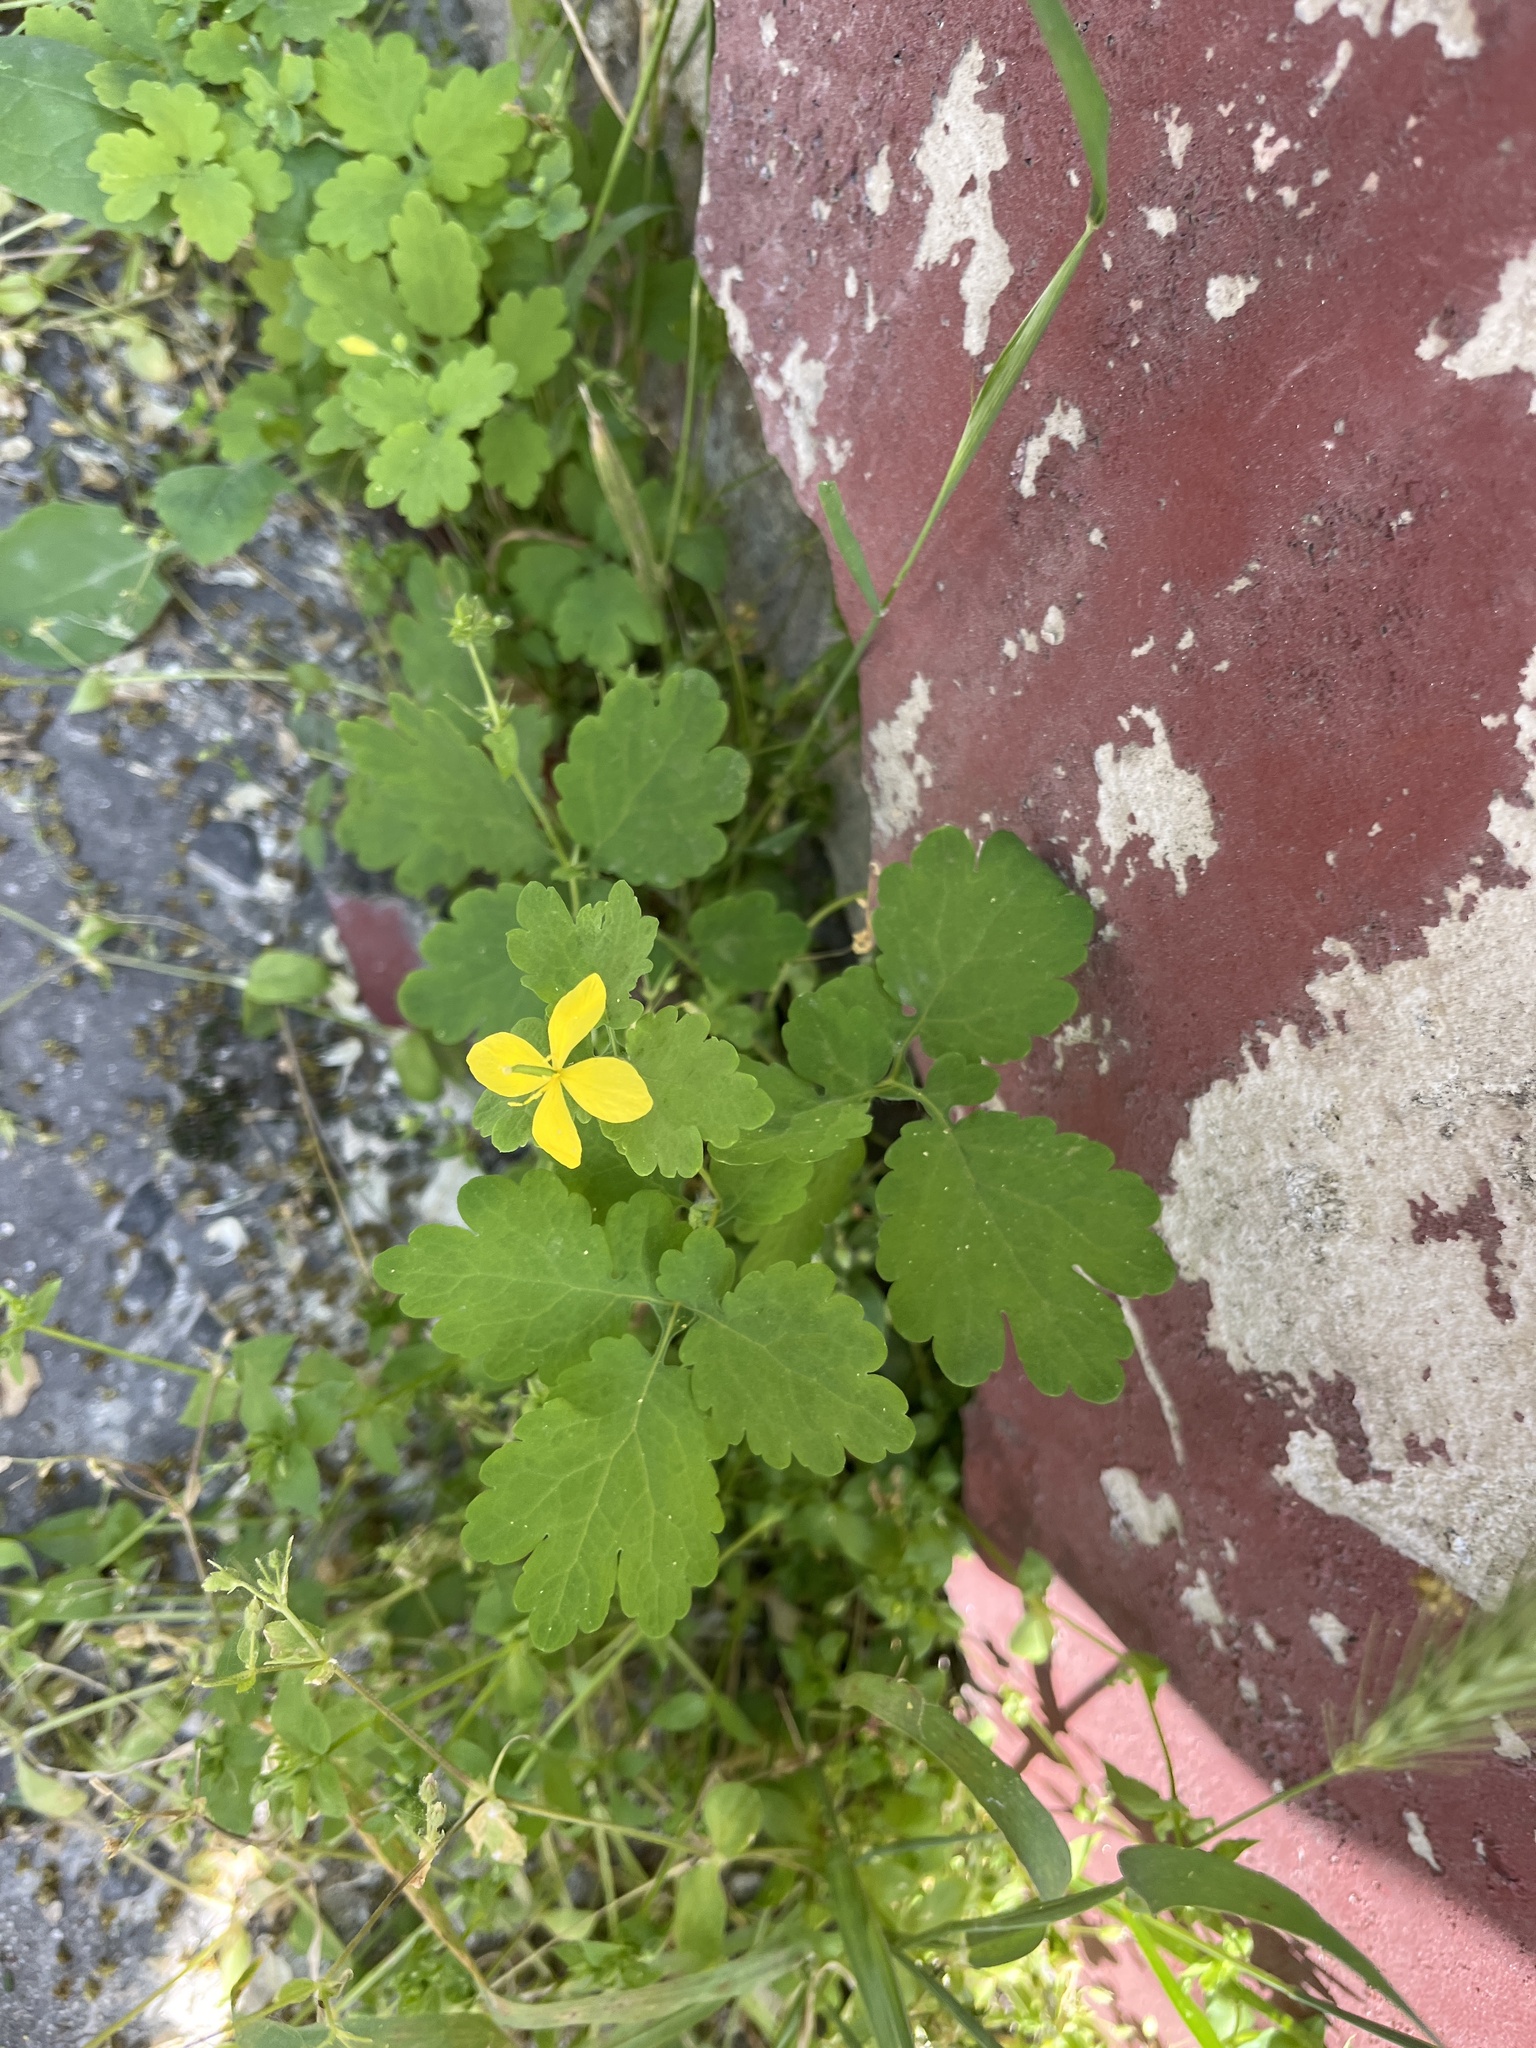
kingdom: Plantae
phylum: Tracheophyta
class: Magnoliopsida
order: Ranunculales
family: Papaveraceae
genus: Chelidonium
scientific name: Chelidonium majus
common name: Greater celandine
